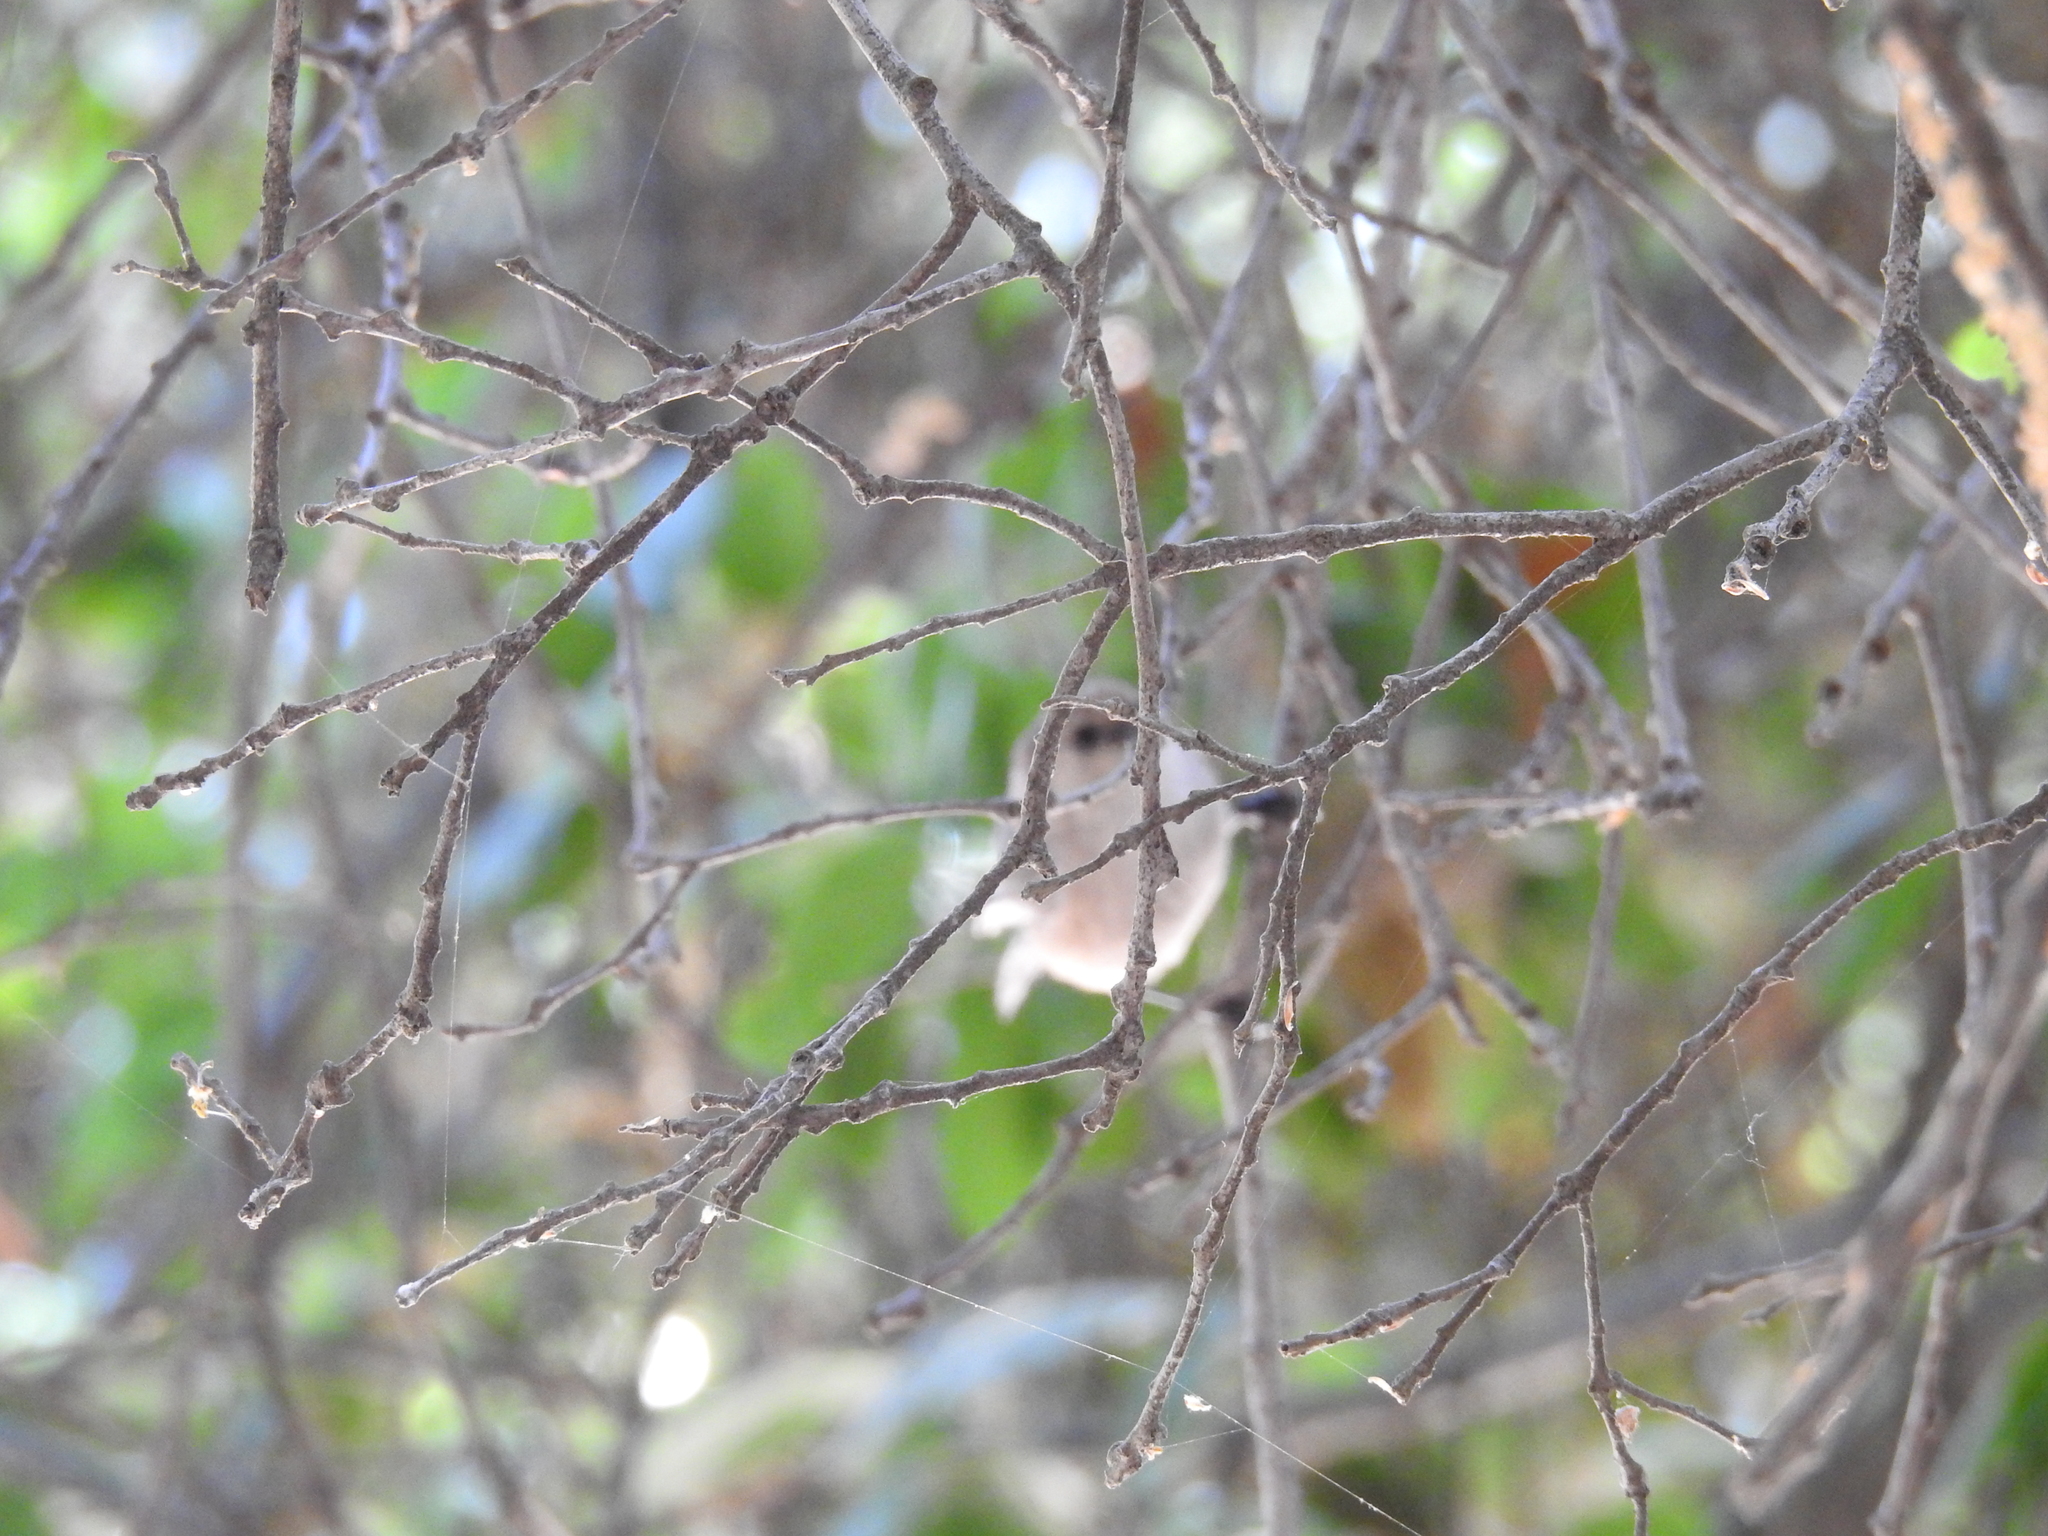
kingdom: Animalia
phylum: Chordata
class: Aves
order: Passeriformes
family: Aegithalidae
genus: Psaltriparus
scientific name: Psaltriparus minimus
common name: American bushtit
